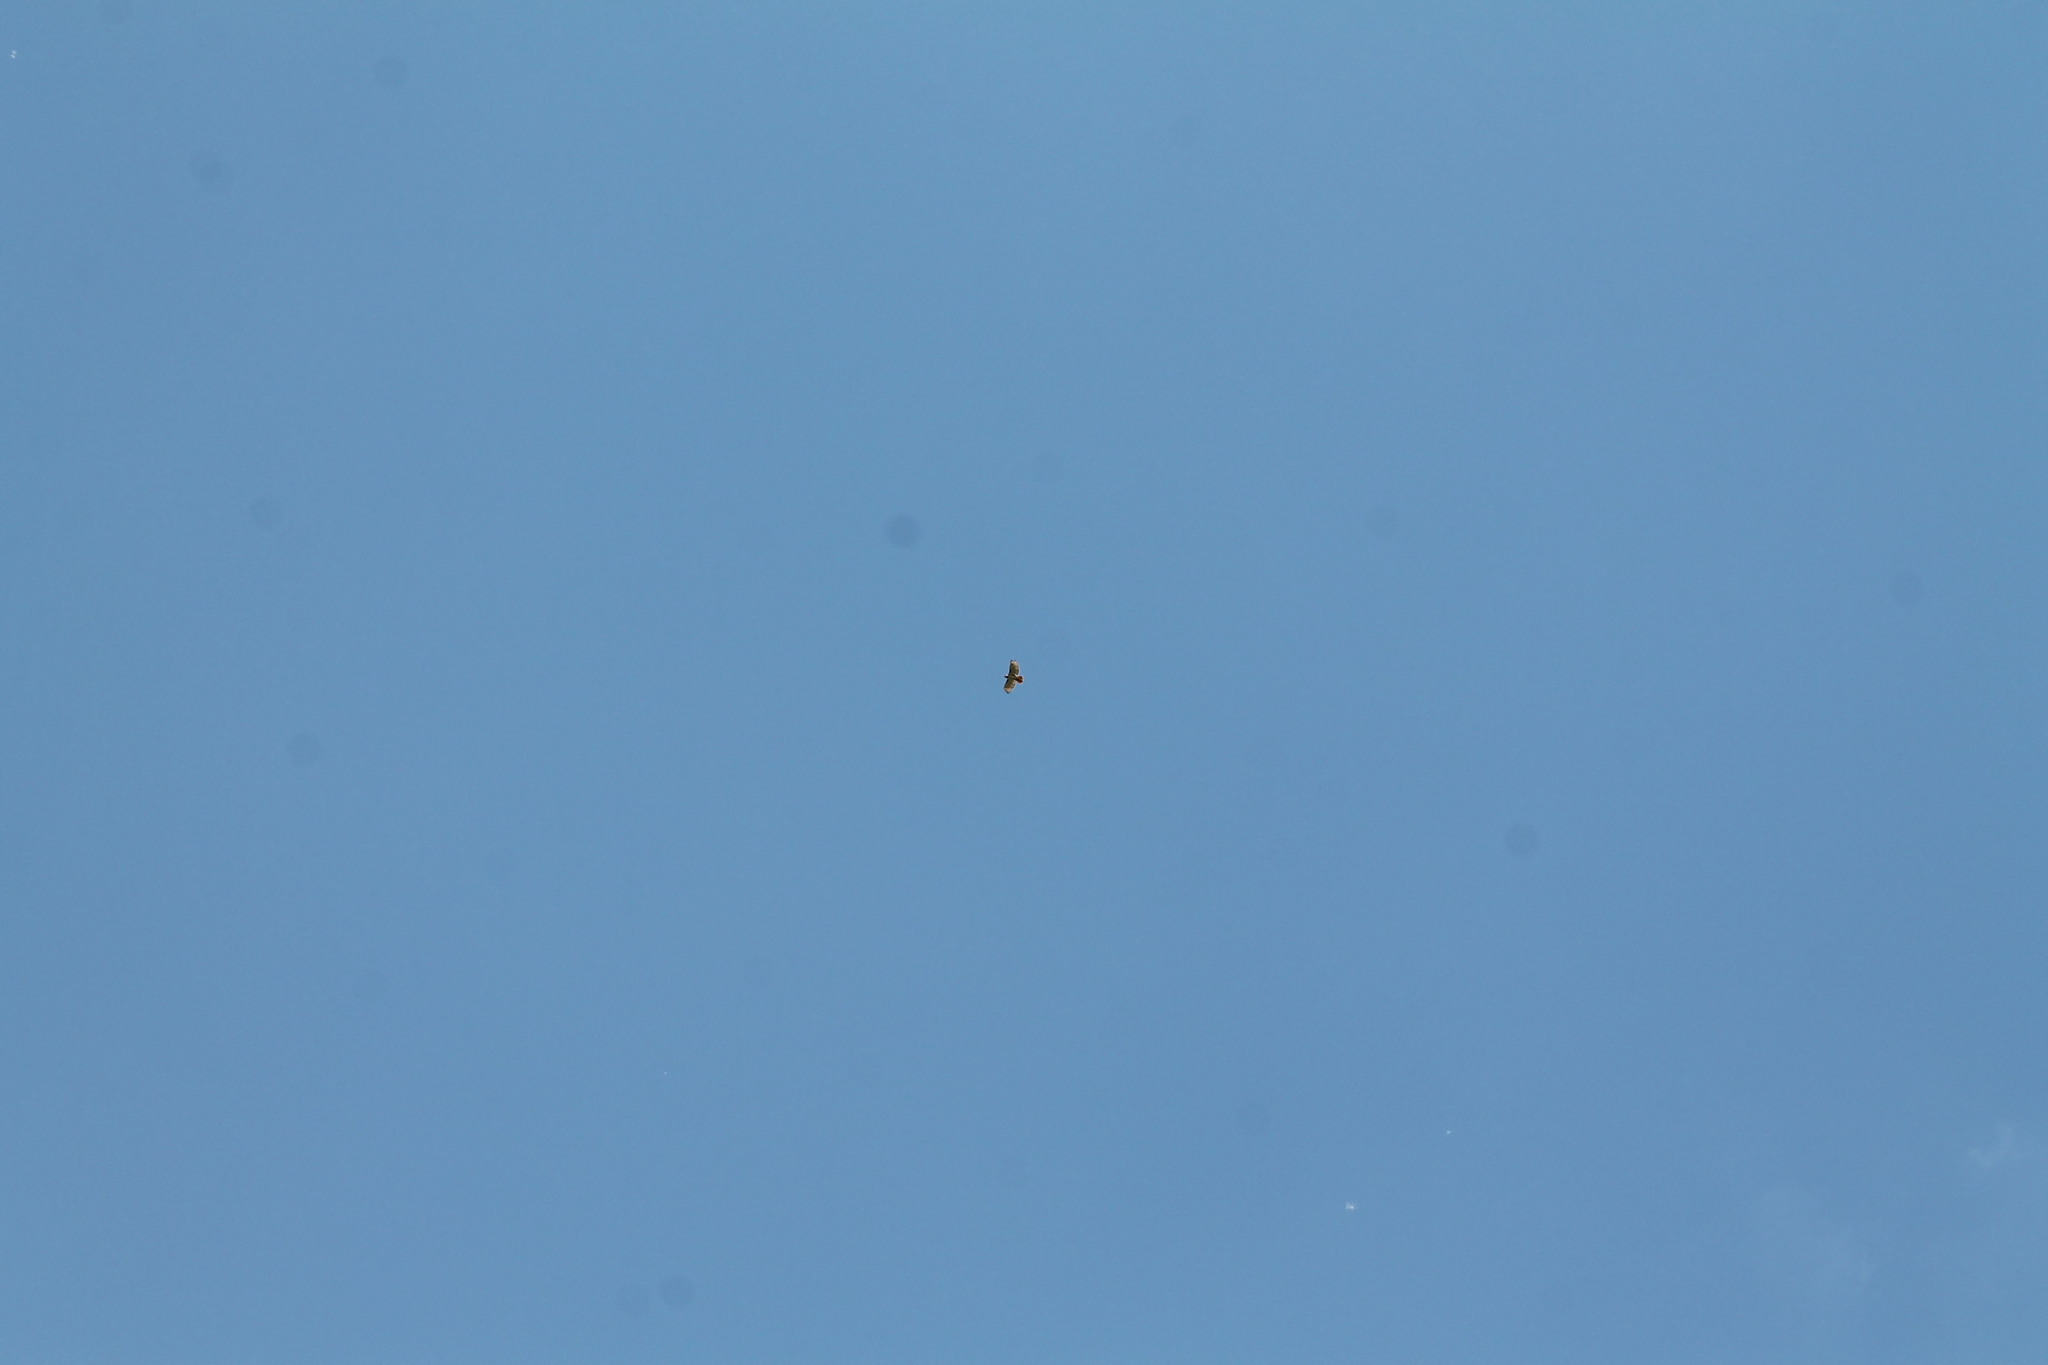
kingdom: Animalia
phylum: Chordata
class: Aves
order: Accipitriformes
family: Accipitridae
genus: Buteo
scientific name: Buteo jamaicensis
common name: Red-tailed hawk
